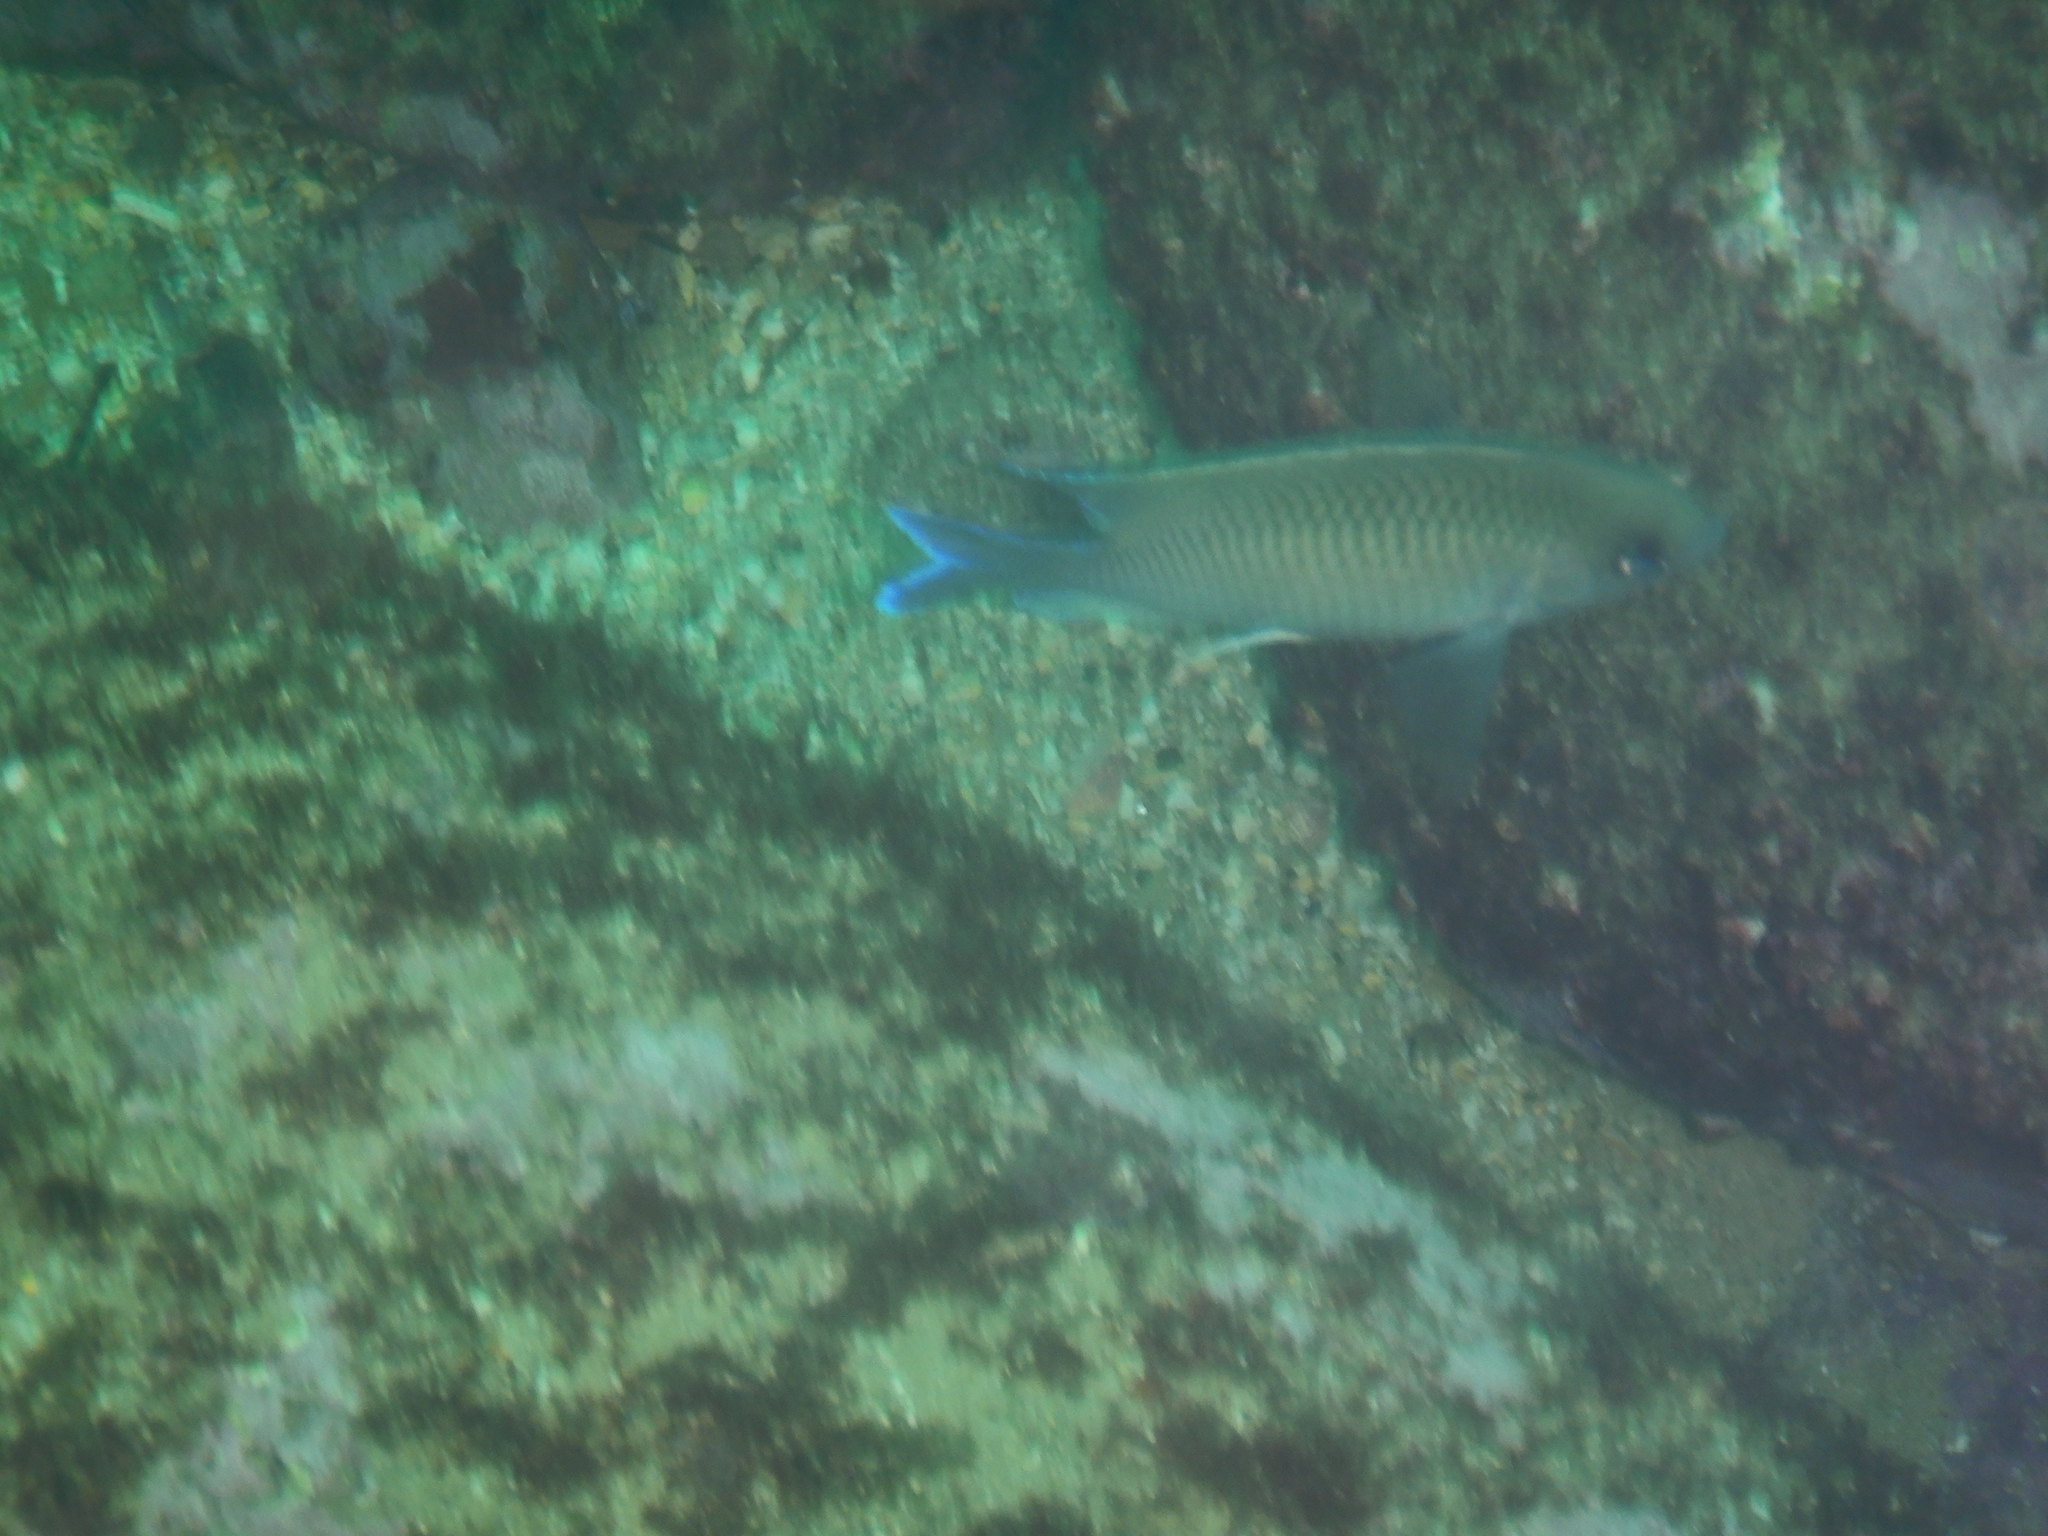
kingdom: Animalia
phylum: Chordata
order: Perciformes
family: Pomacentridae
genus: Mecaenichthys
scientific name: Mecaenichthys immaculatus
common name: Immaculate damsel
